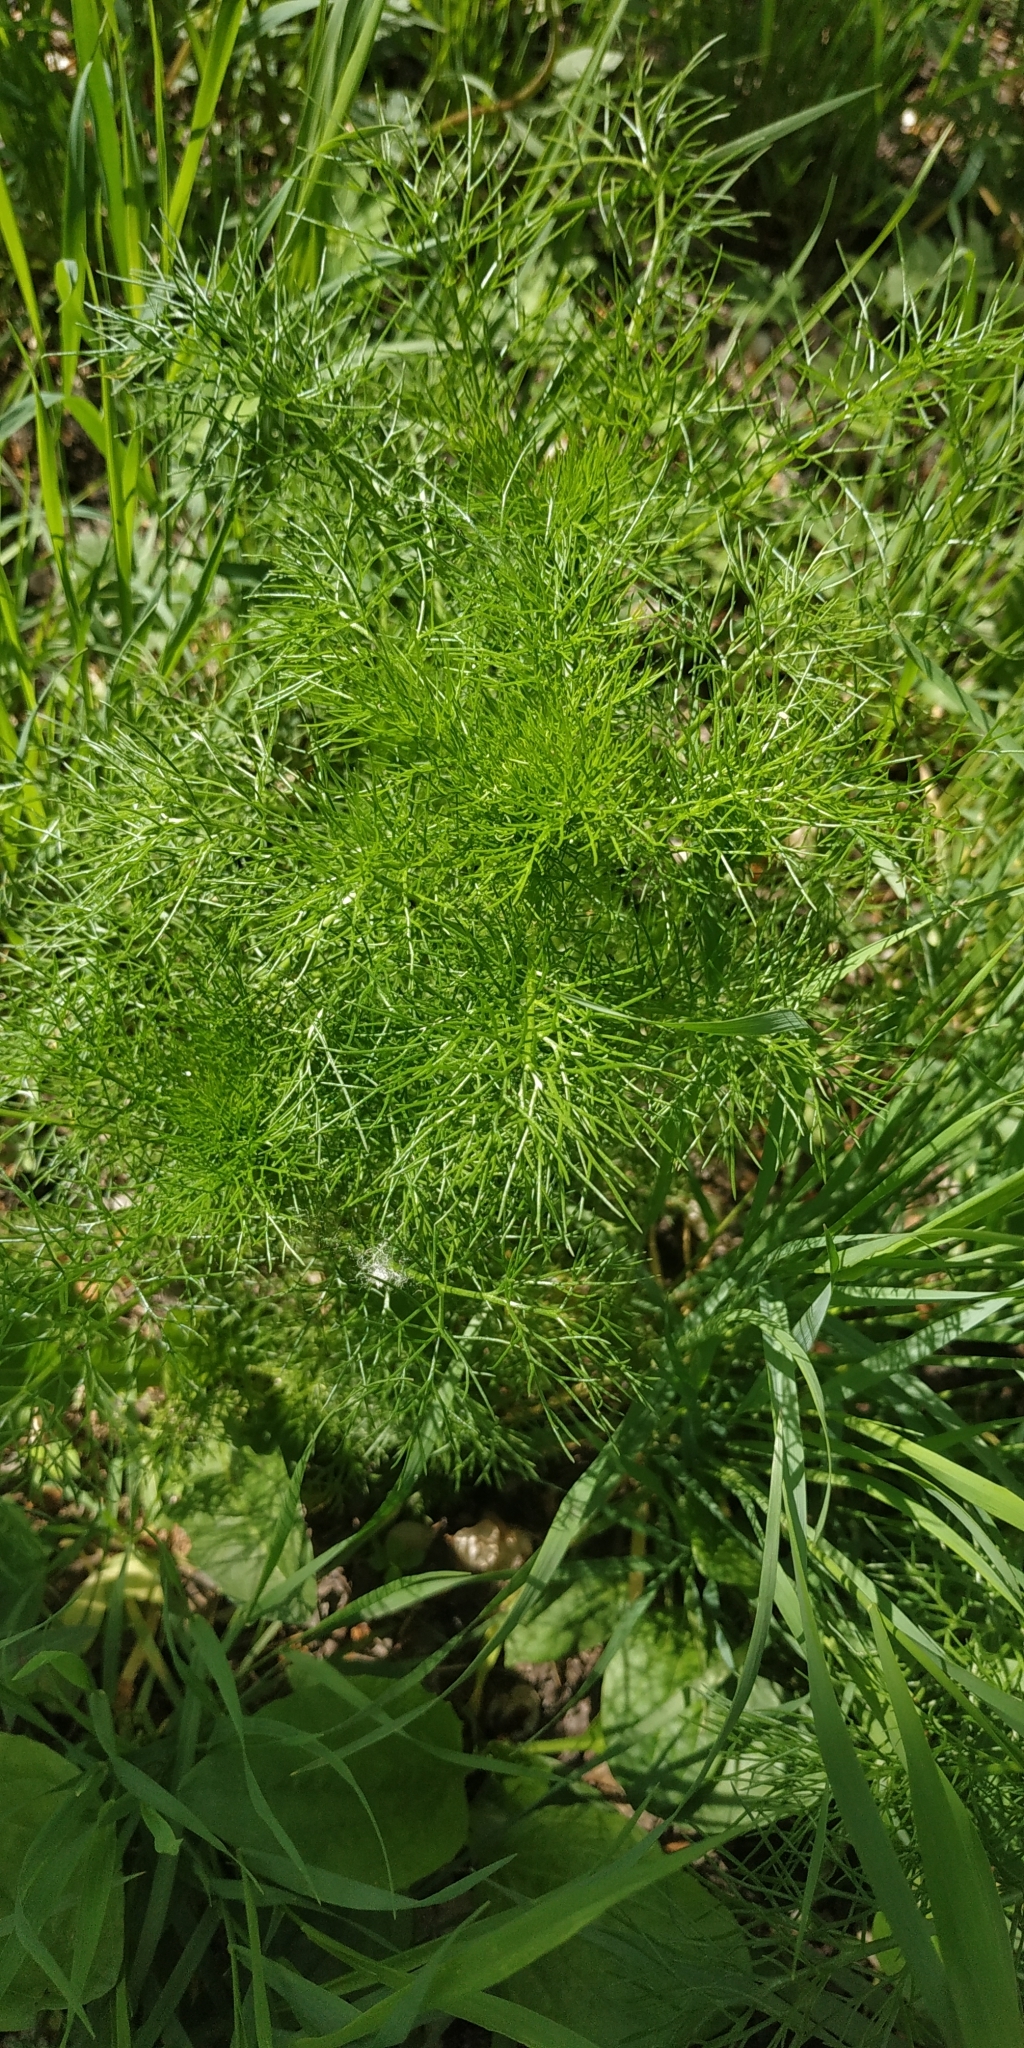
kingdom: Plantae
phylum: Tracheophyta
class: Magnoliopsida
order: Asterales
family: Asteraceae
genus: Tripleurospermum
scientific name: Tripleurospermum inodorum
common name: Scentless mayweed
